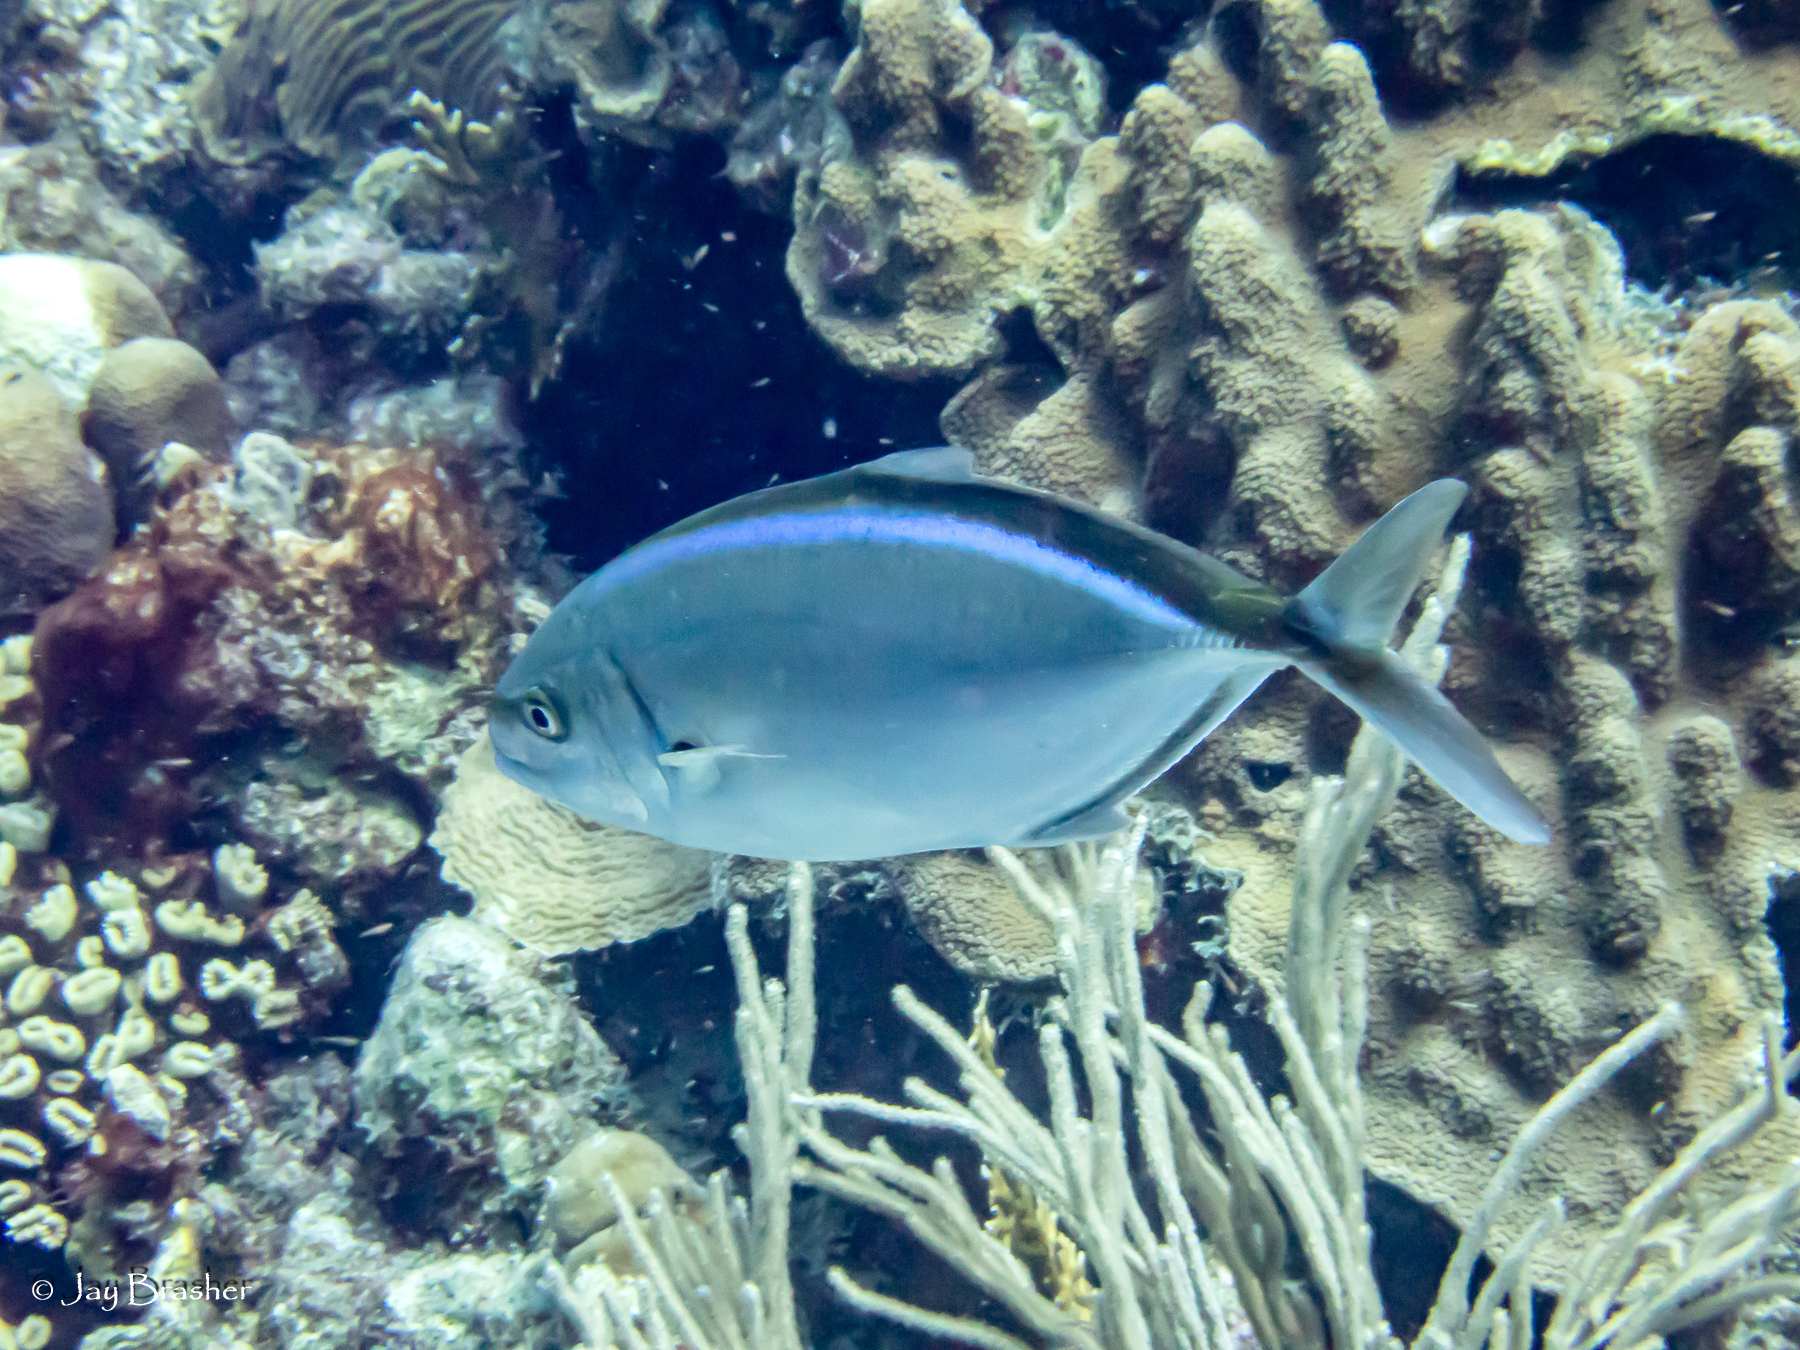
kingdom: Animalia
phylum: Chordata
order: Perciformes
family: Carangidae
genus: Caranx
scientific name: Caranx ruber
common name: Bar jack
